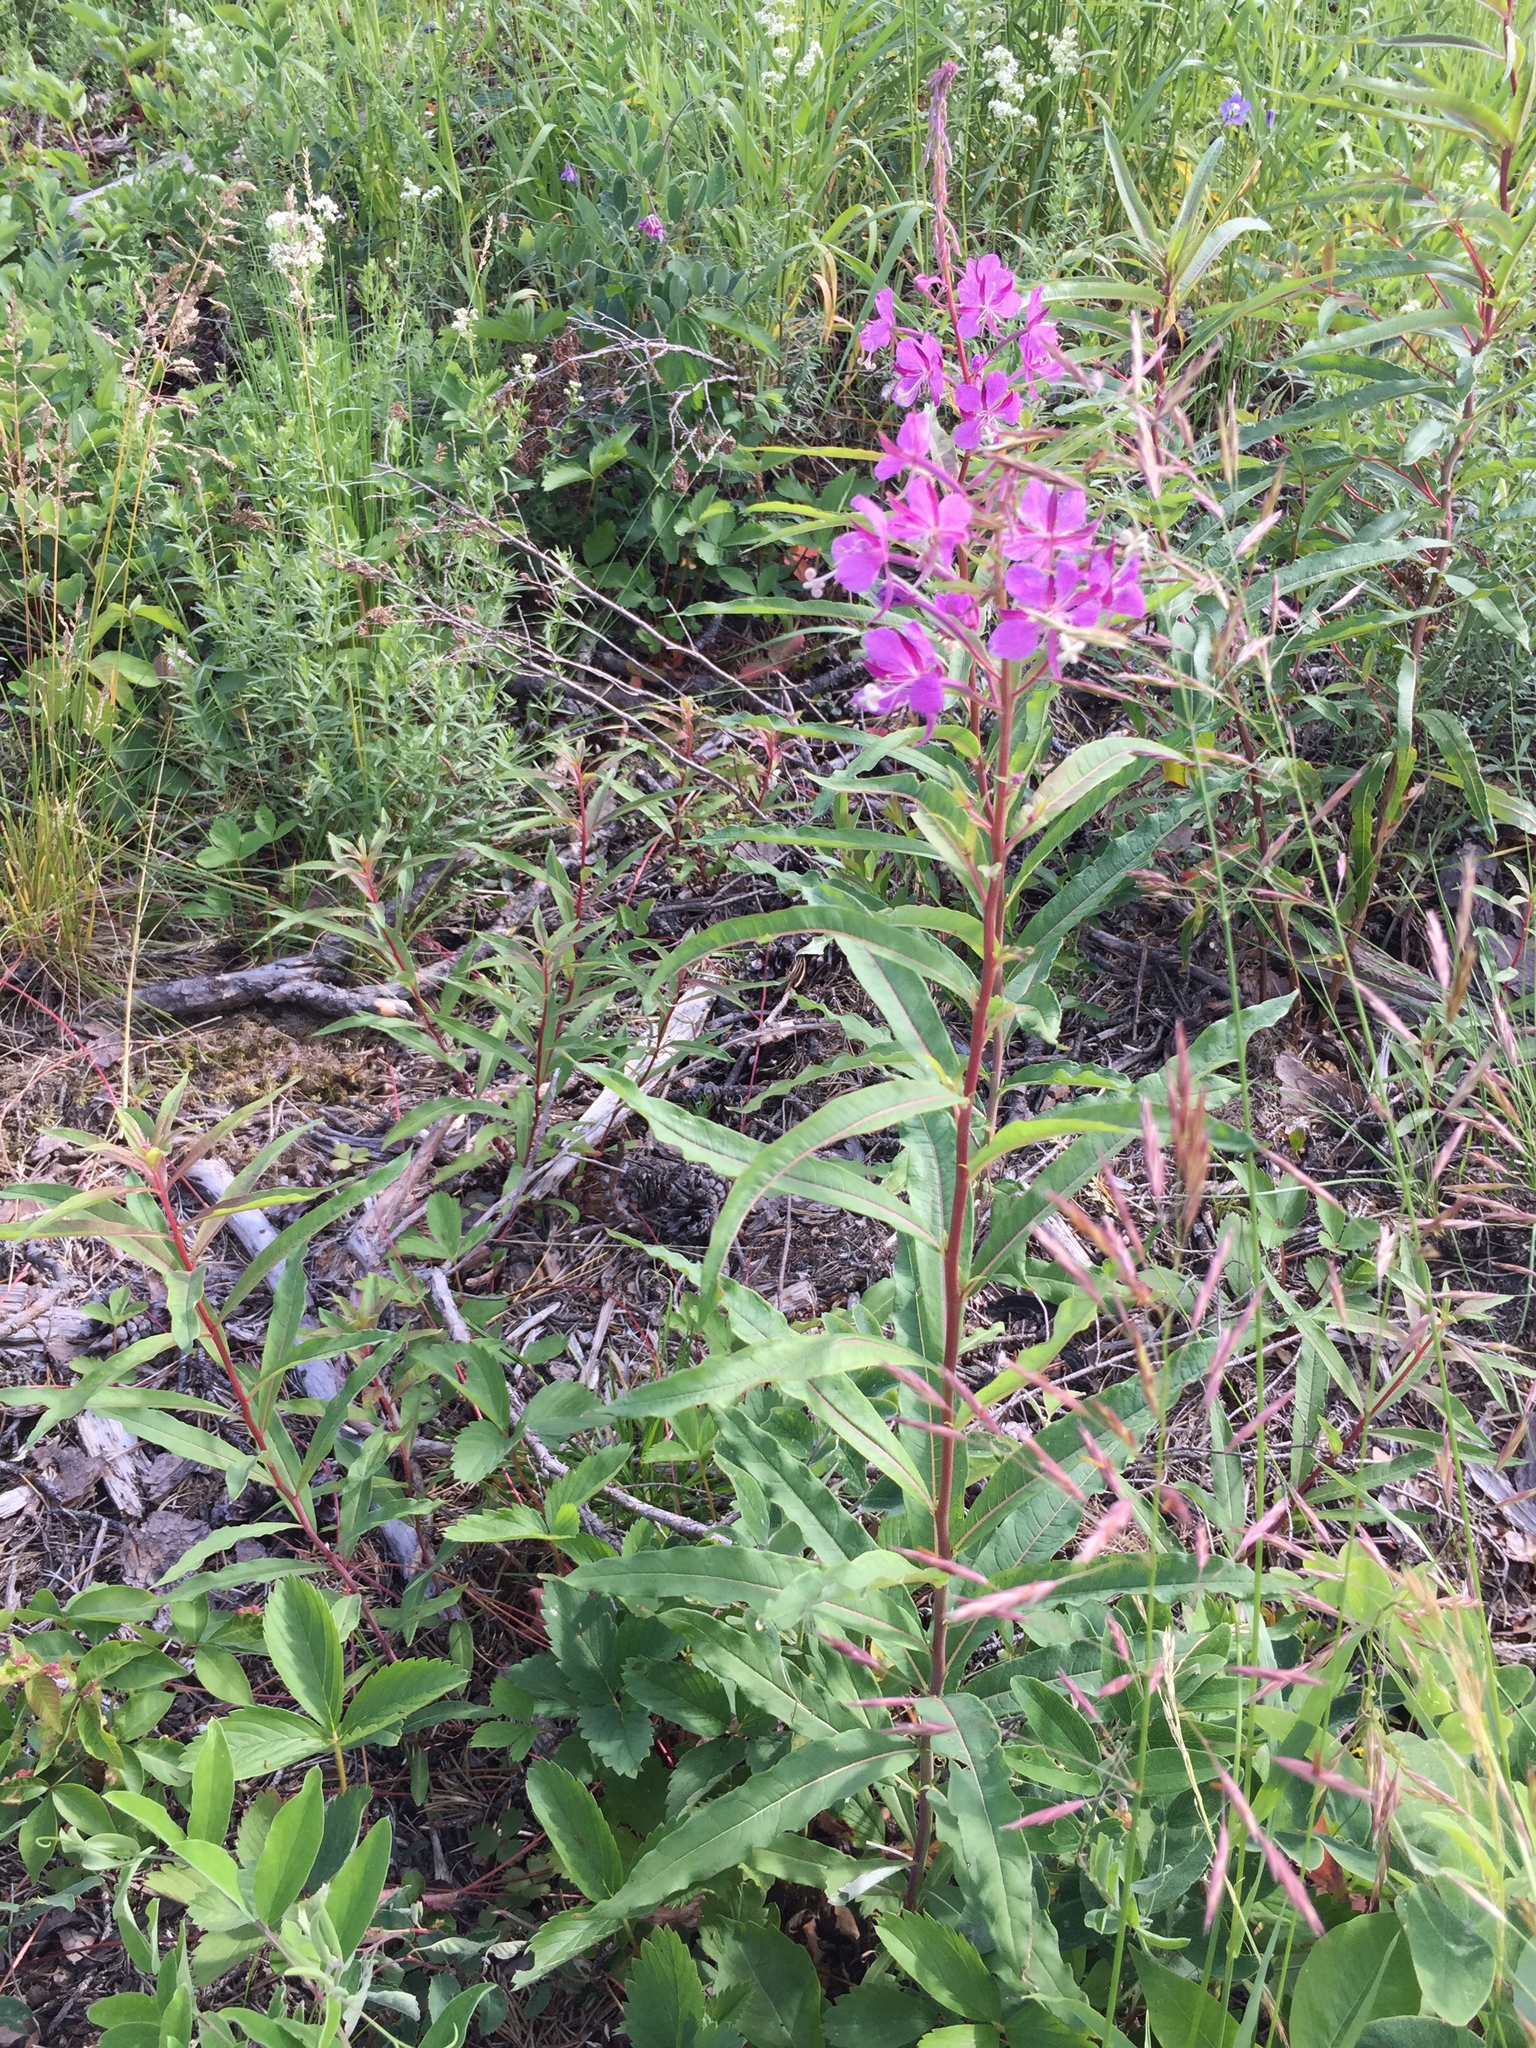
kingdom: Plantae
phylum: Tracheophyta
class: Magnoliopsida
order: Myrtales
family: Onagraceae
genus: Chamaenerion
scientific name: Chamaenerion angustifolium
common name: Fireweed
